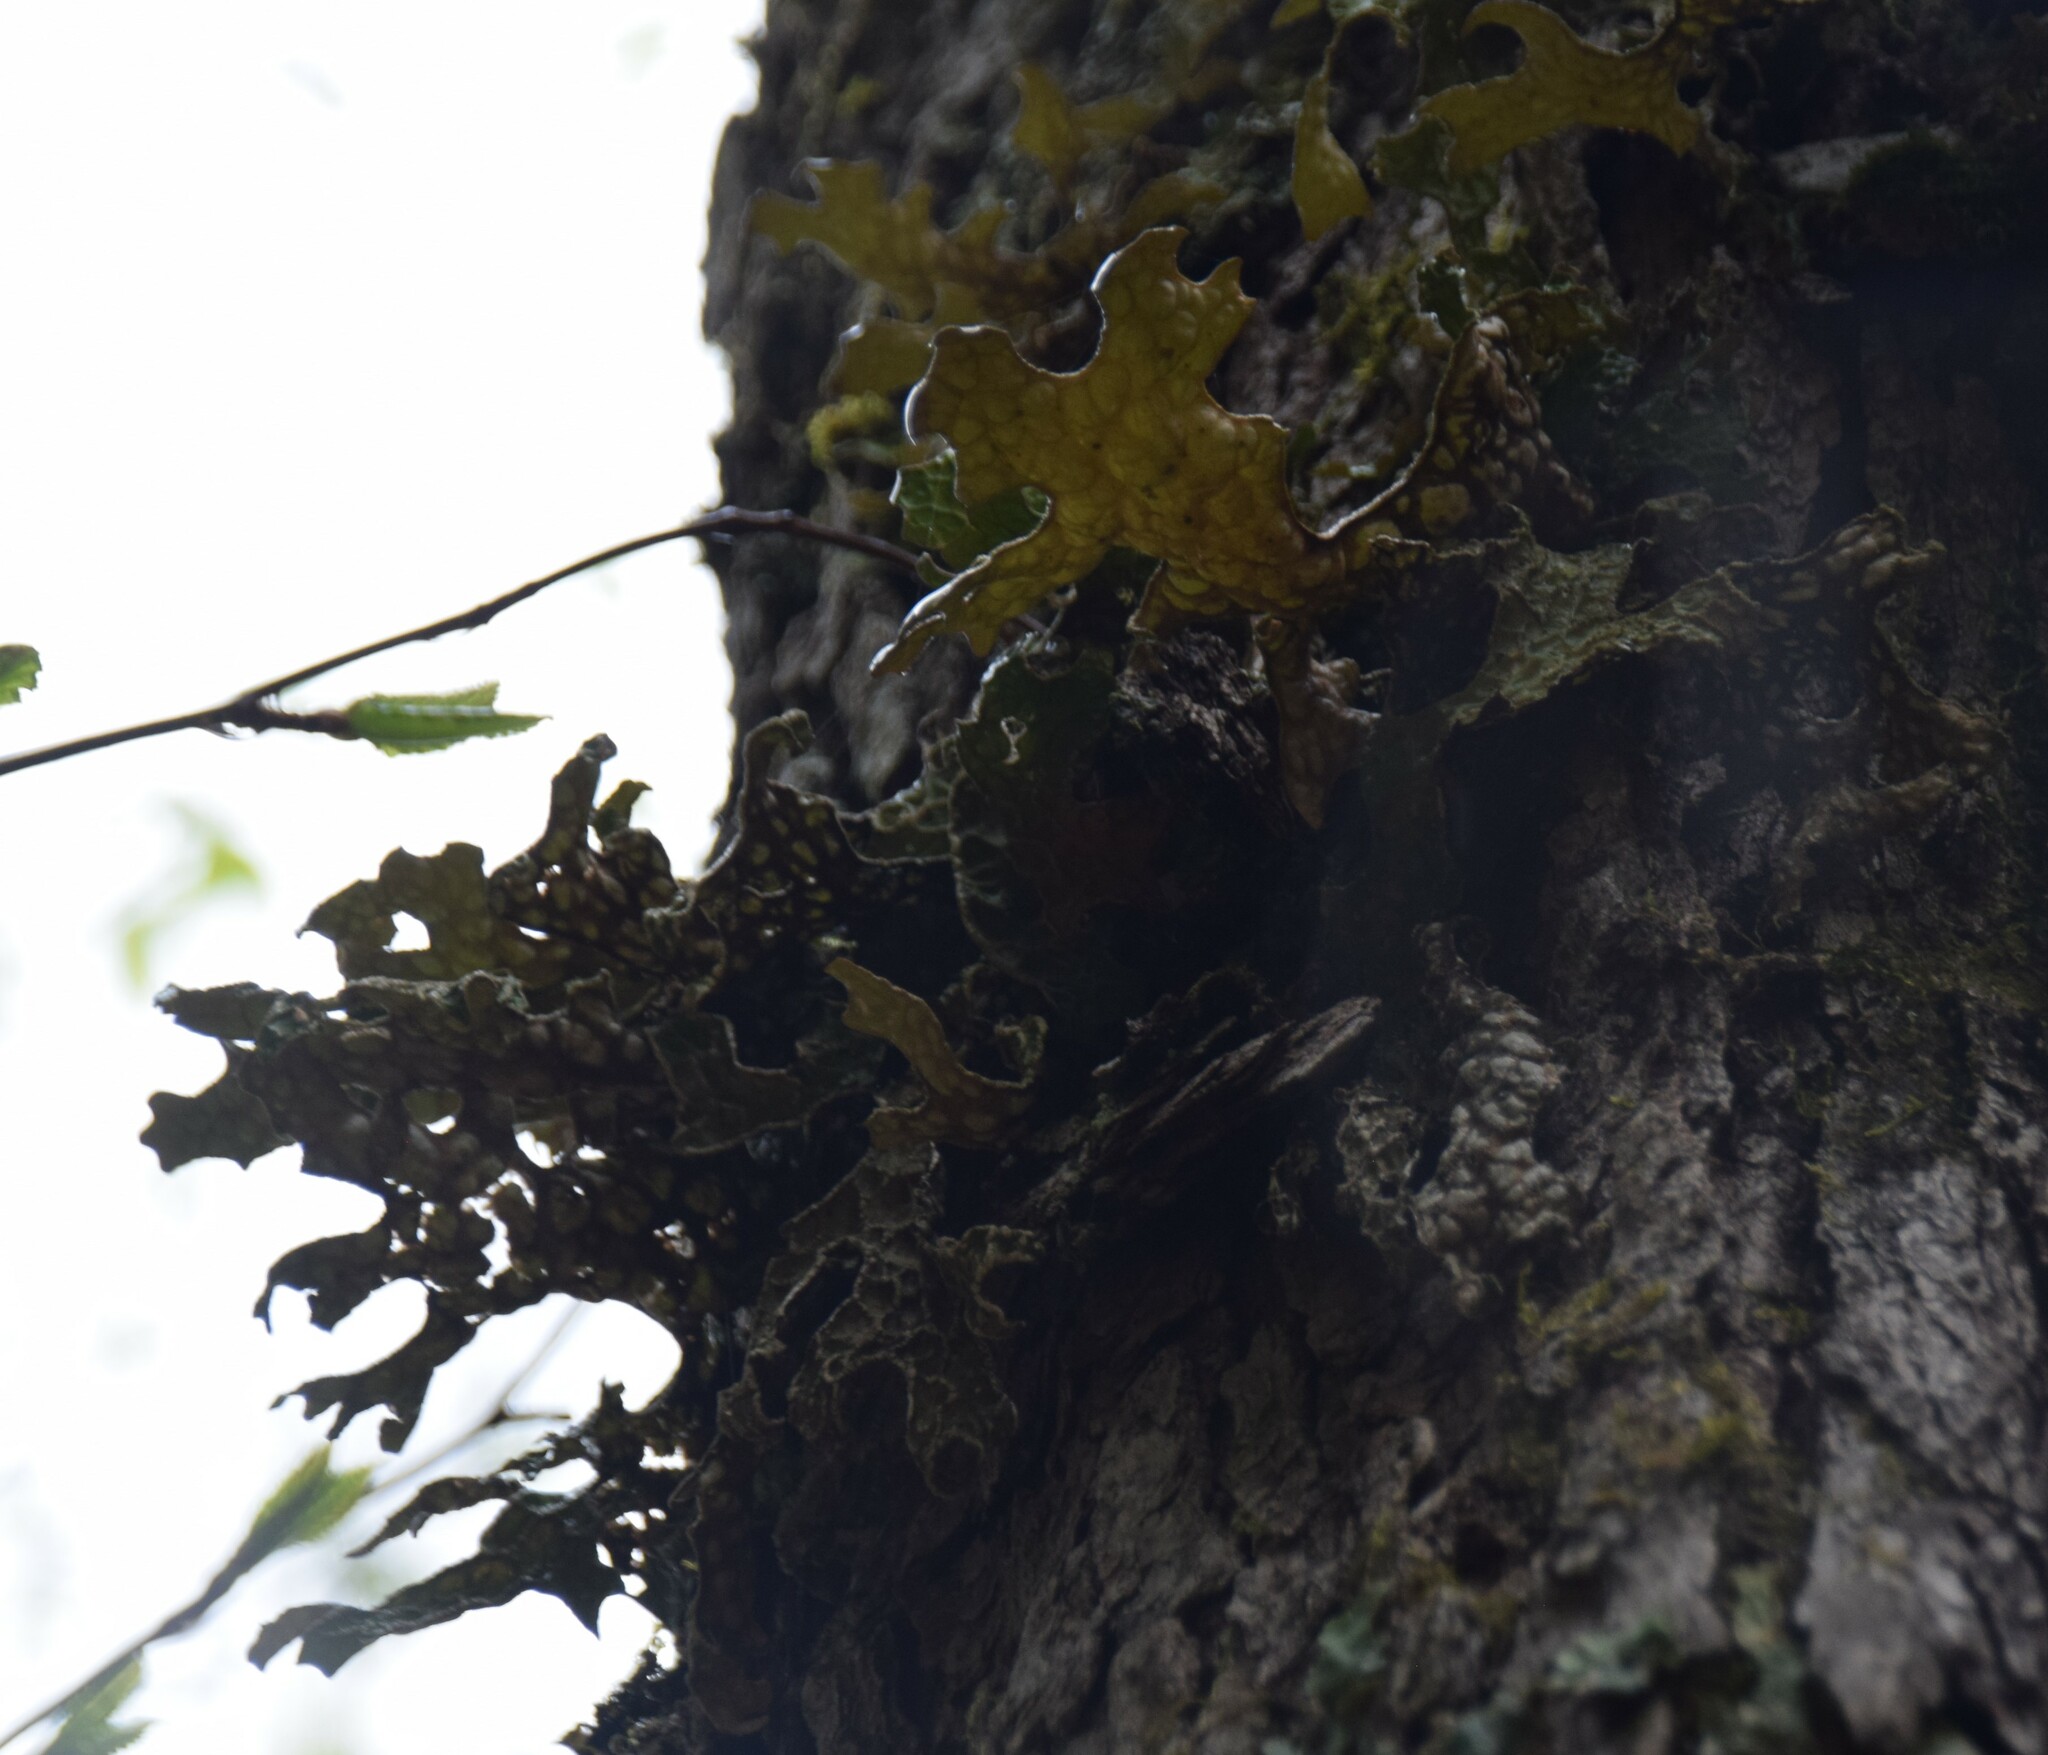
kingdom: Fungi
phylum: Ascomycota
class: Lecanoromycetes
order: Peltigerales
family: Lobariaceae
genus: Lobaria
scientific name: Lobaria pulmonaria
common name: Lungwort
